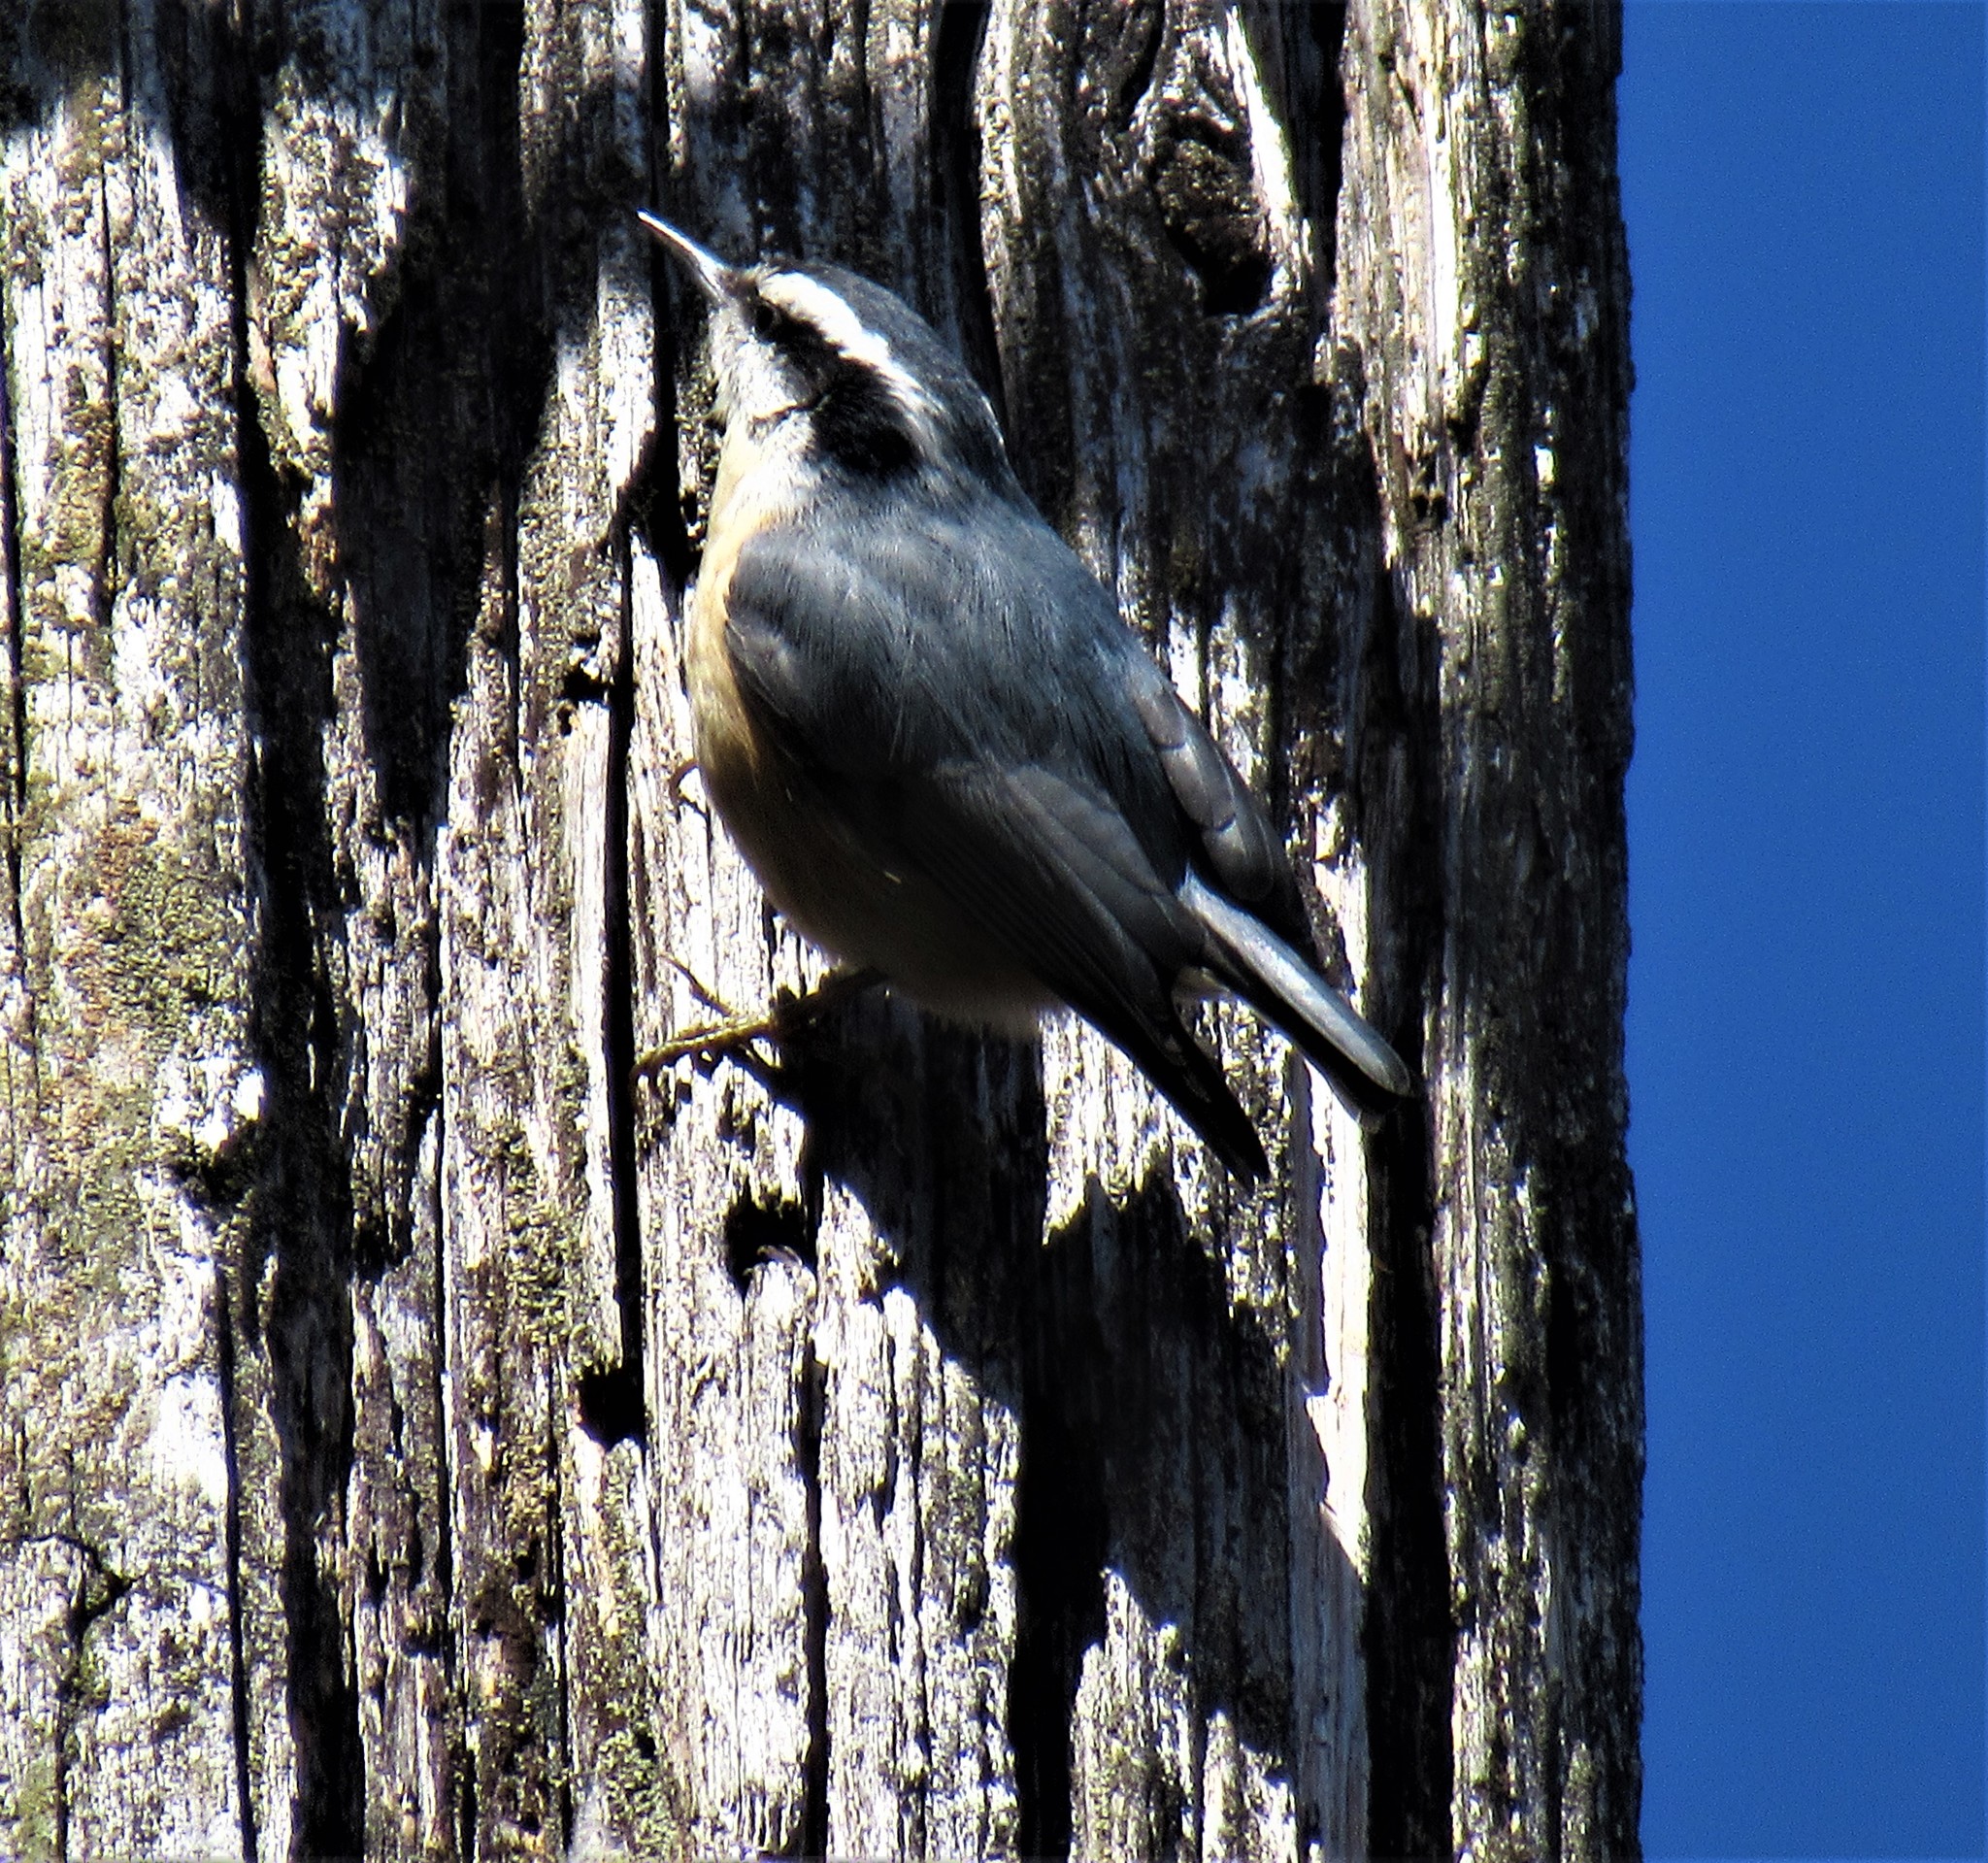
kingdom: Animalia
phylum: Chordata
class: Aves
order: Passeriformes
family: Sittidae
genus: Sitta
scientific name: Sitta canadensis
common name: Red-breasted nuthatch
